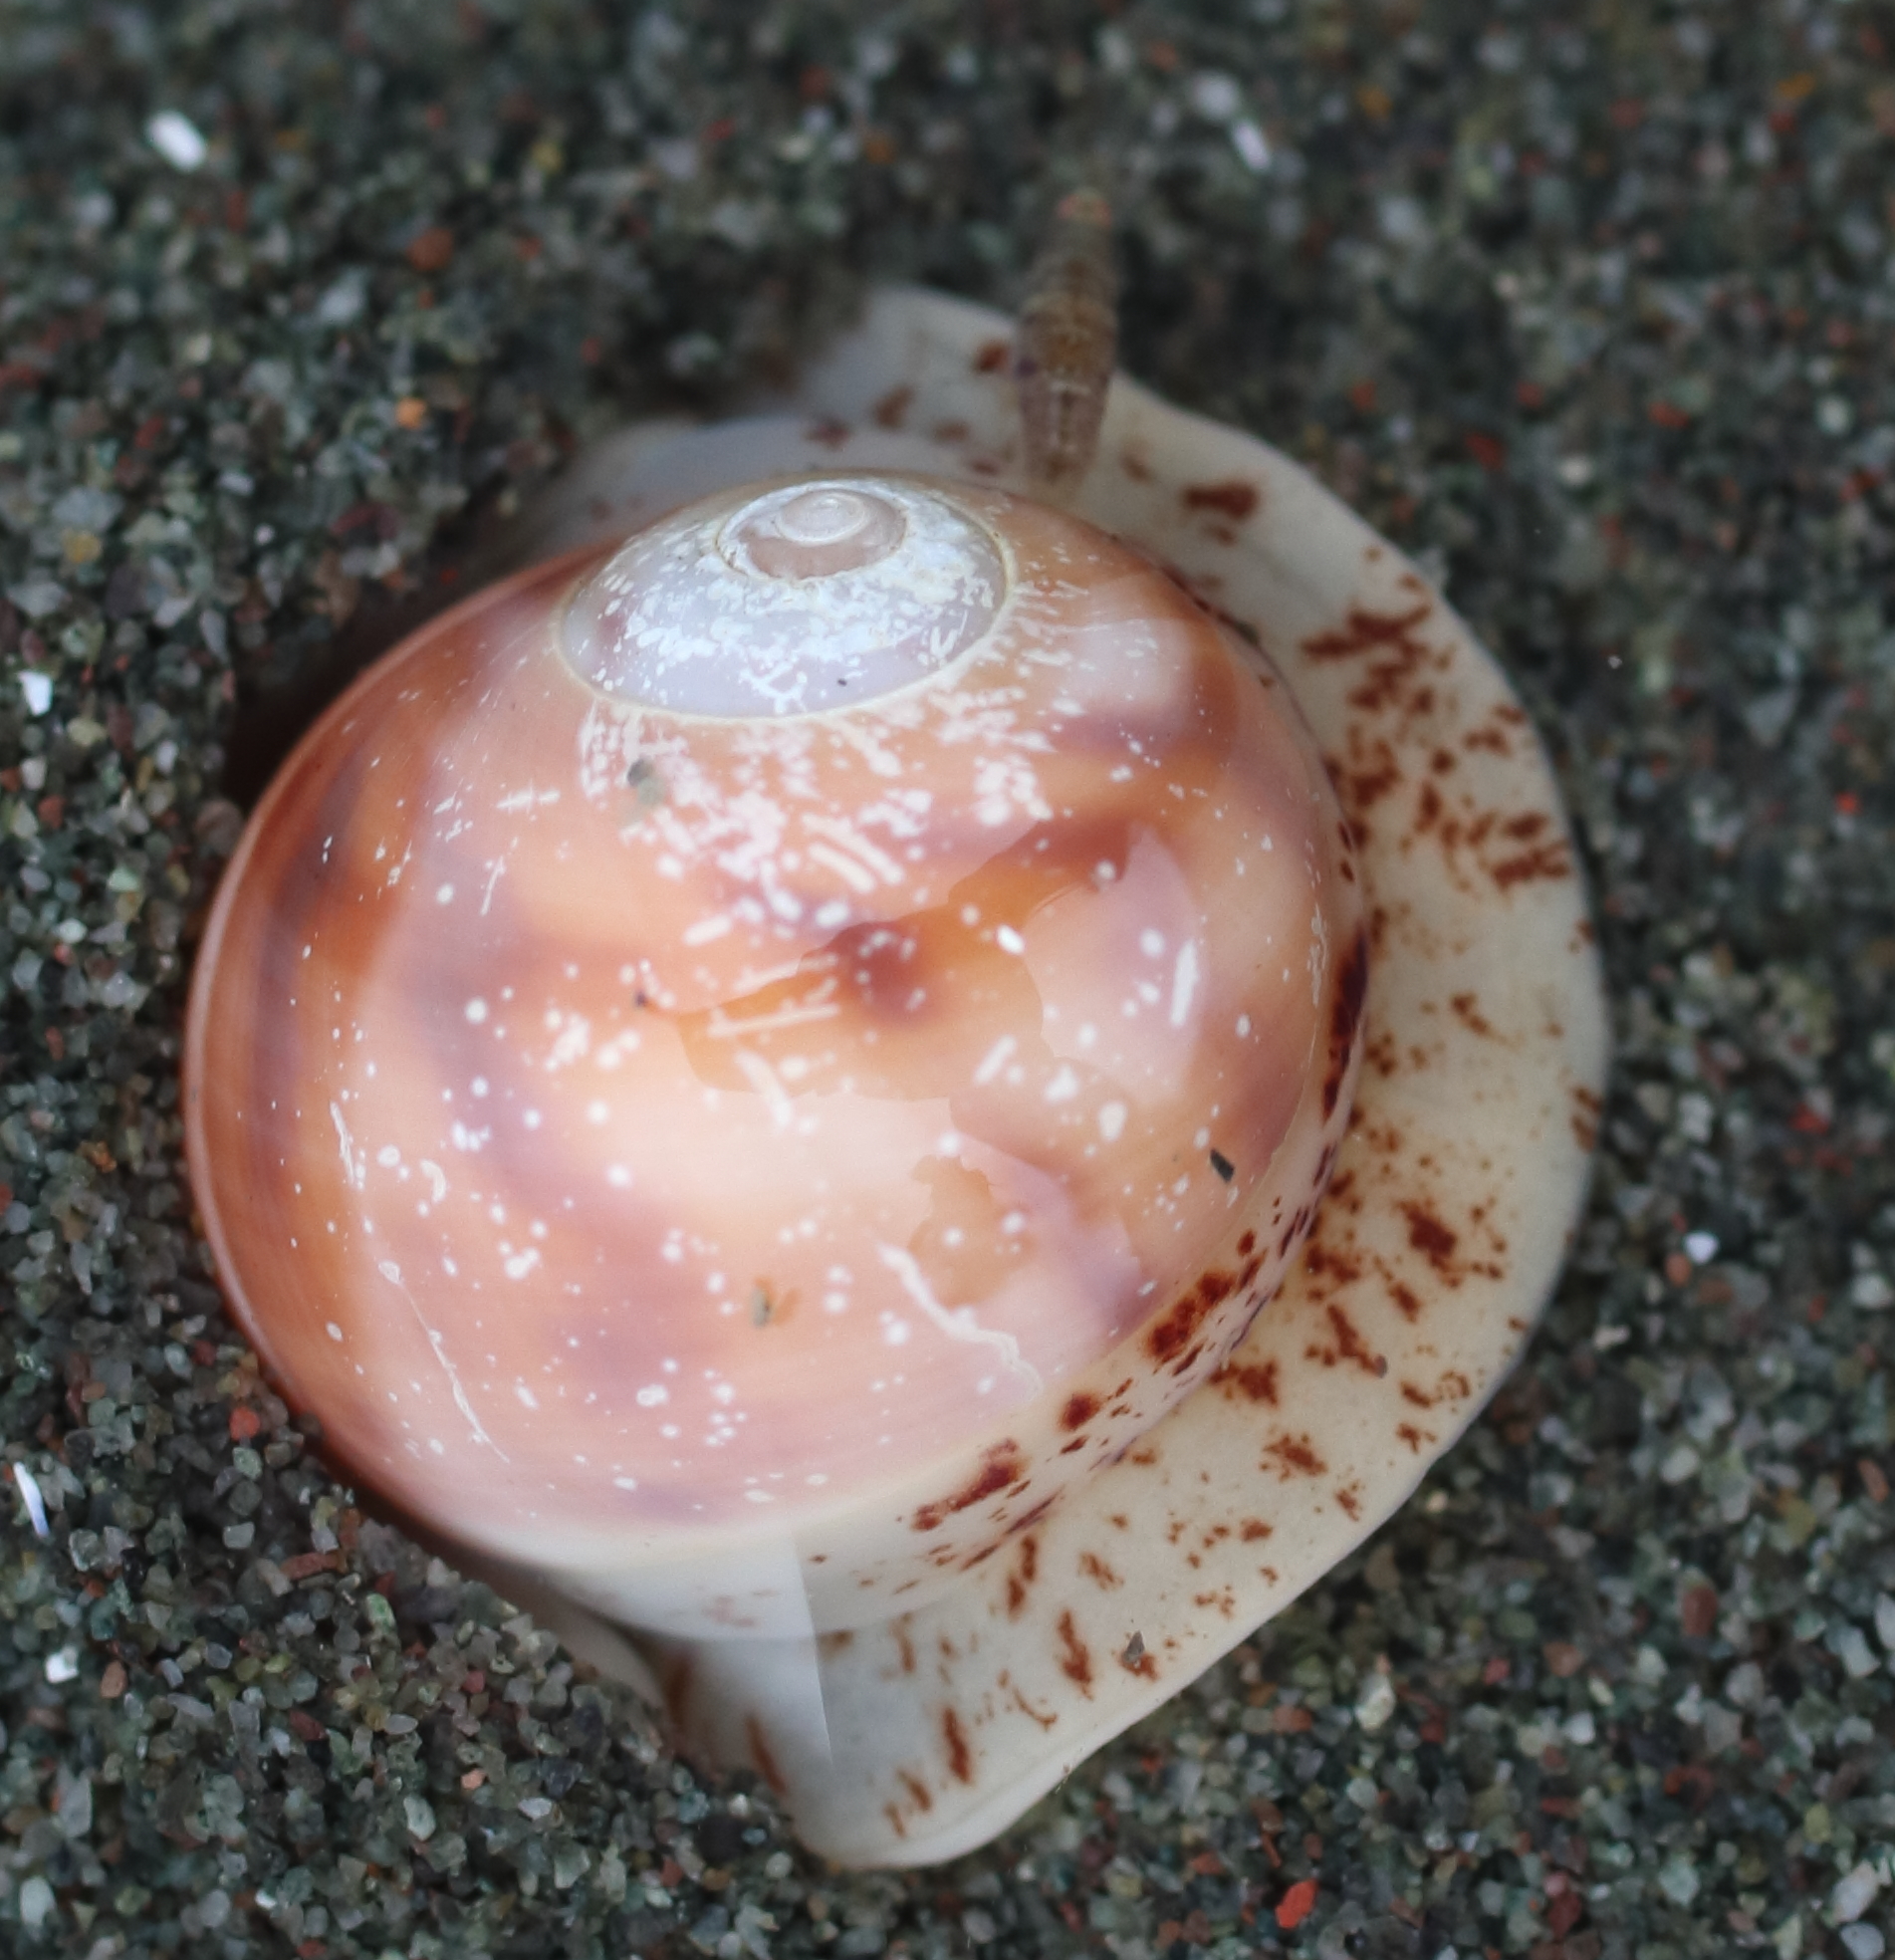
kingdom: Animalia
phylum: Mollusca
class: Gastropoda
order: Littorinimorpha
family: Naticidae
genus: Cryptonatica
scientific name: Cryptonatica aleutica
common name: Aleutian moon snail
